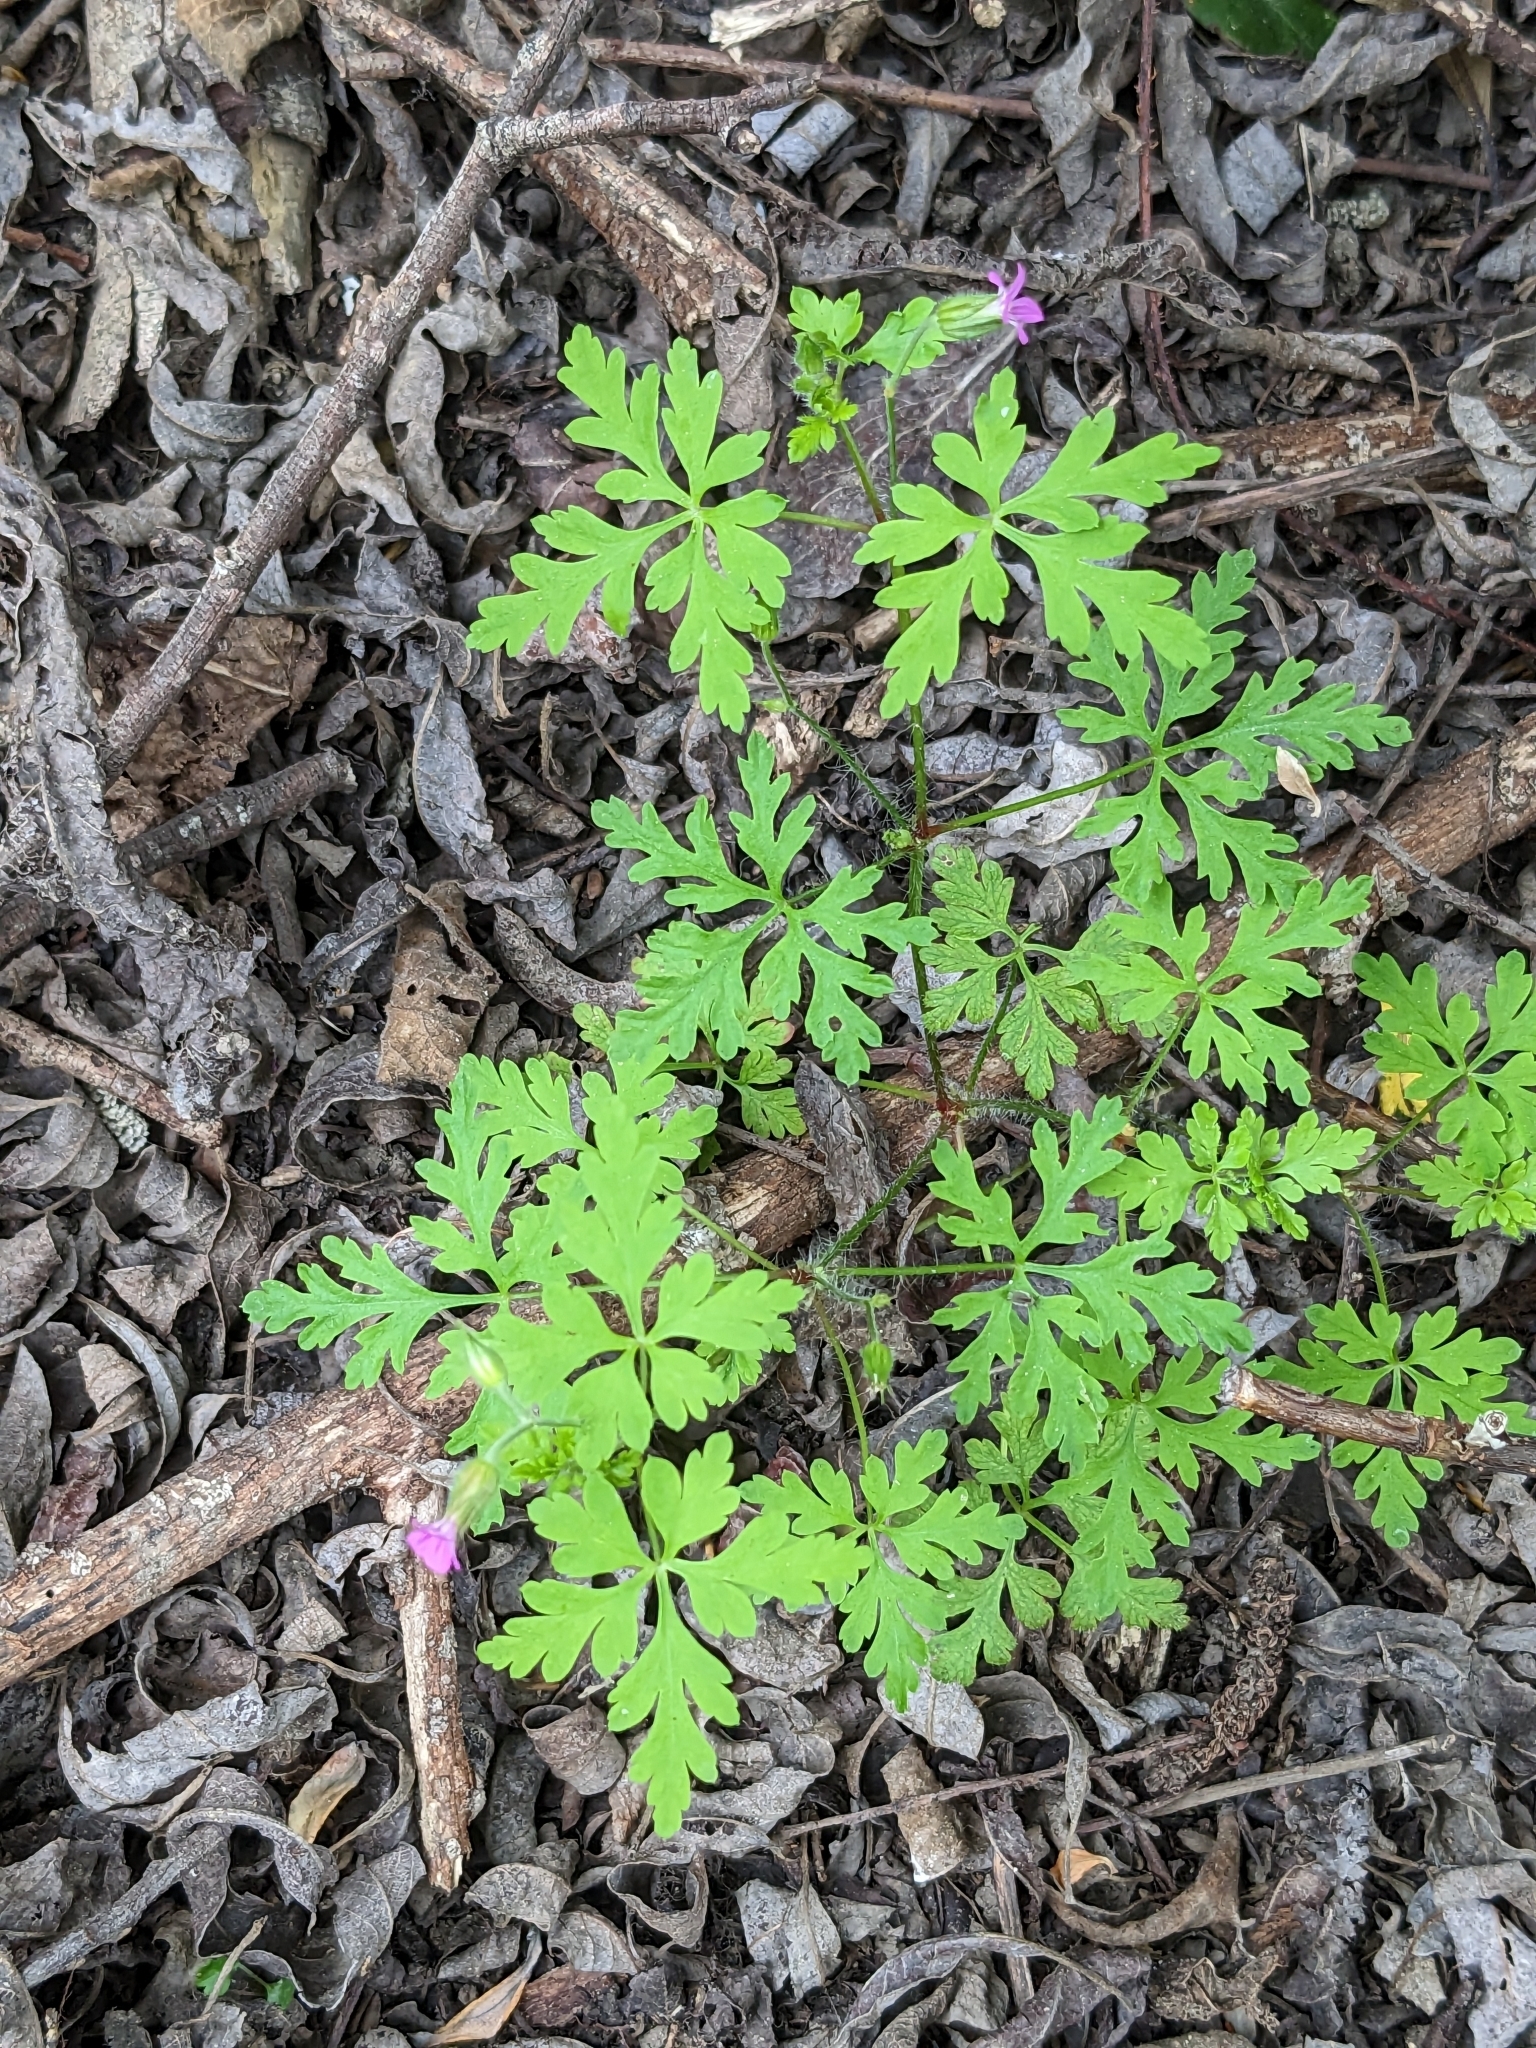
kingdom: Plantae
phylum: Tracheophyta
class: Magnoliopsida
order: Geraniales
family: Geraniaceae
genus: Geranium
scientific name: Geranium robertianum
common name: Herb-robert
